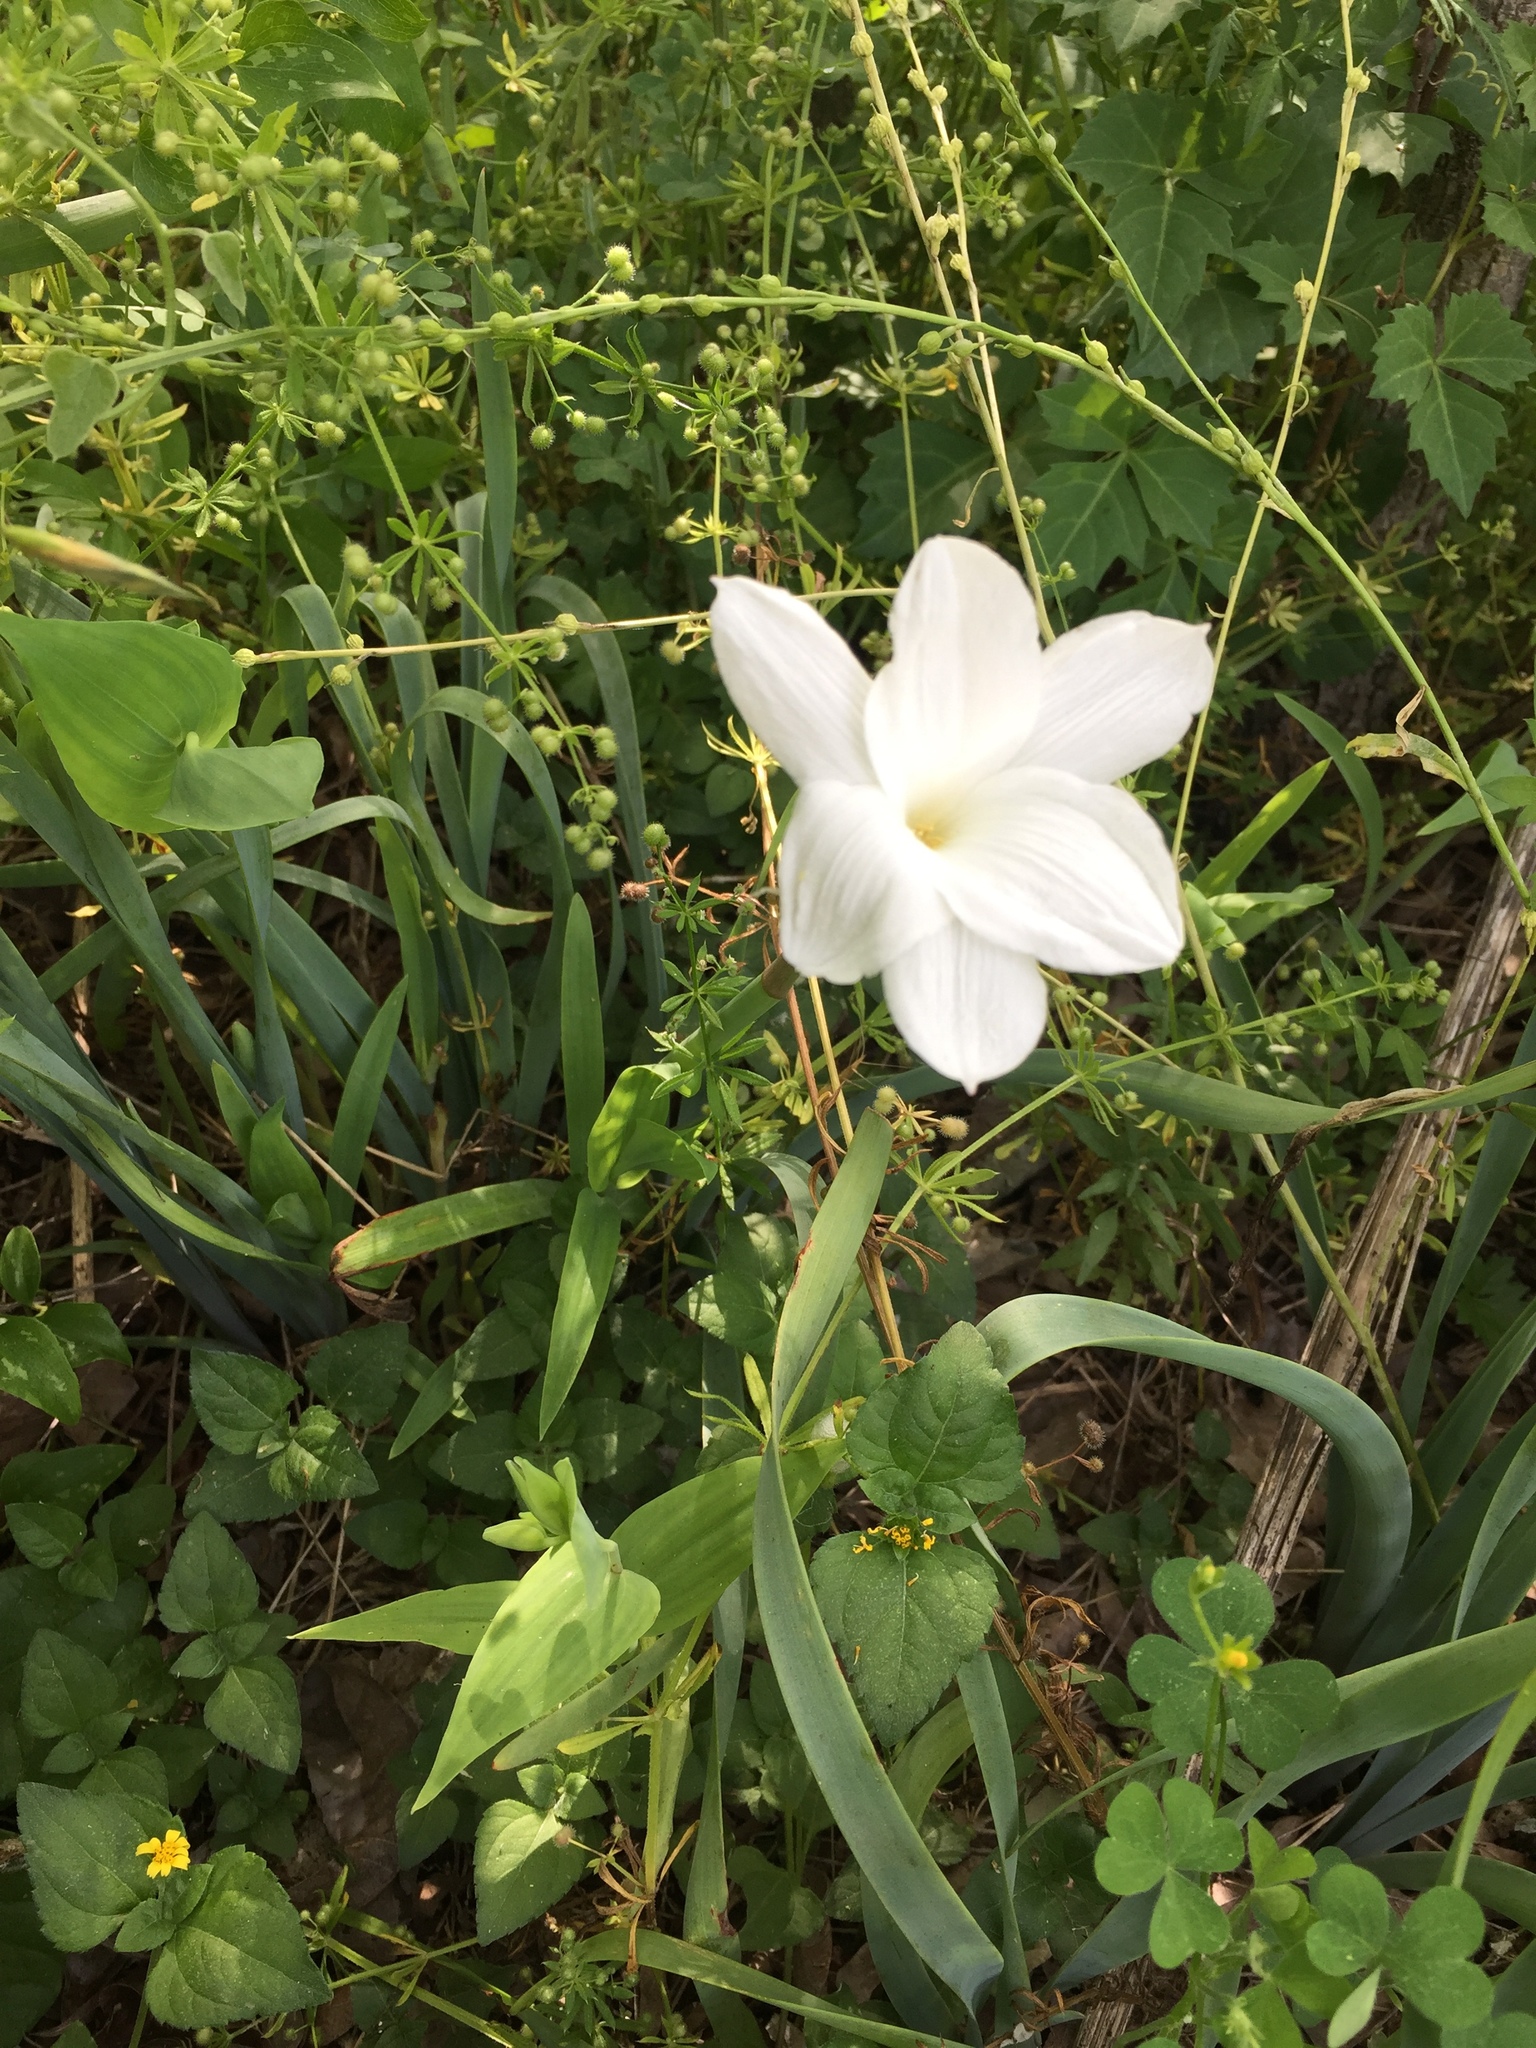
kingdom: Plantae
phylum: Tracheophyta
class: Liliopsida
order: Asparagales
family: Amaryllidaceae
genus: Zephyranthes
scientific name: Zephyranthes drummondii
